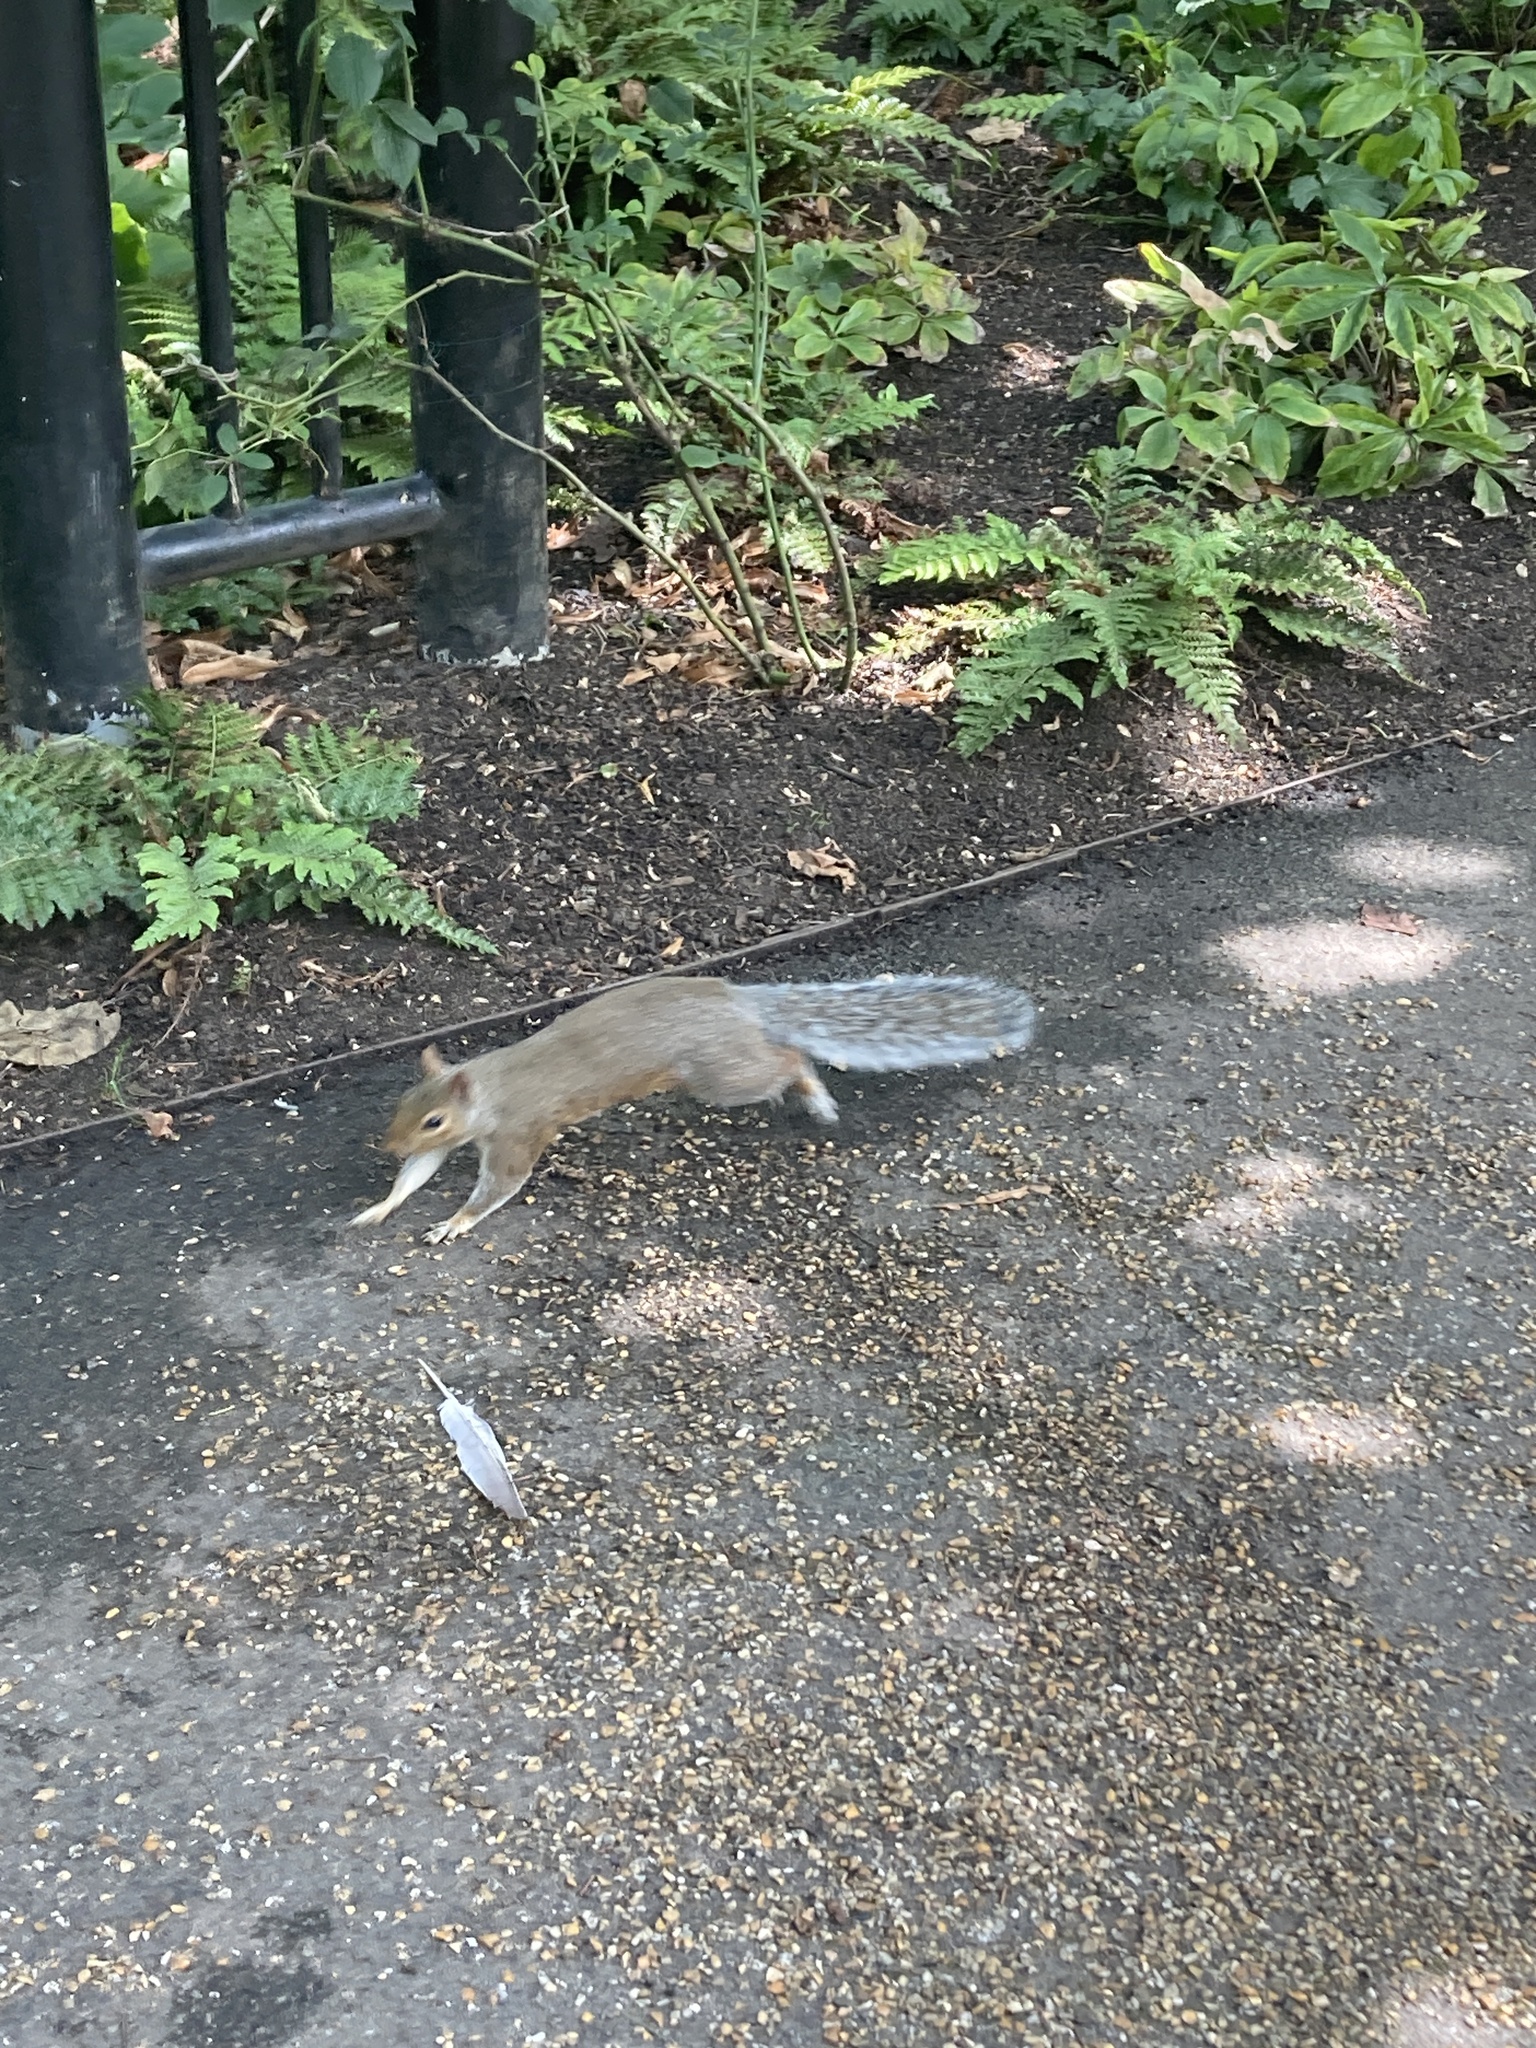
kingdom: Animalia
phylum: Chordata
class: Mammalia
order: Rodentia
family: Sciuridae
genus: Sciurus
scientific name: Sciurus carolinensis
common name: Eastern gray squirrel
